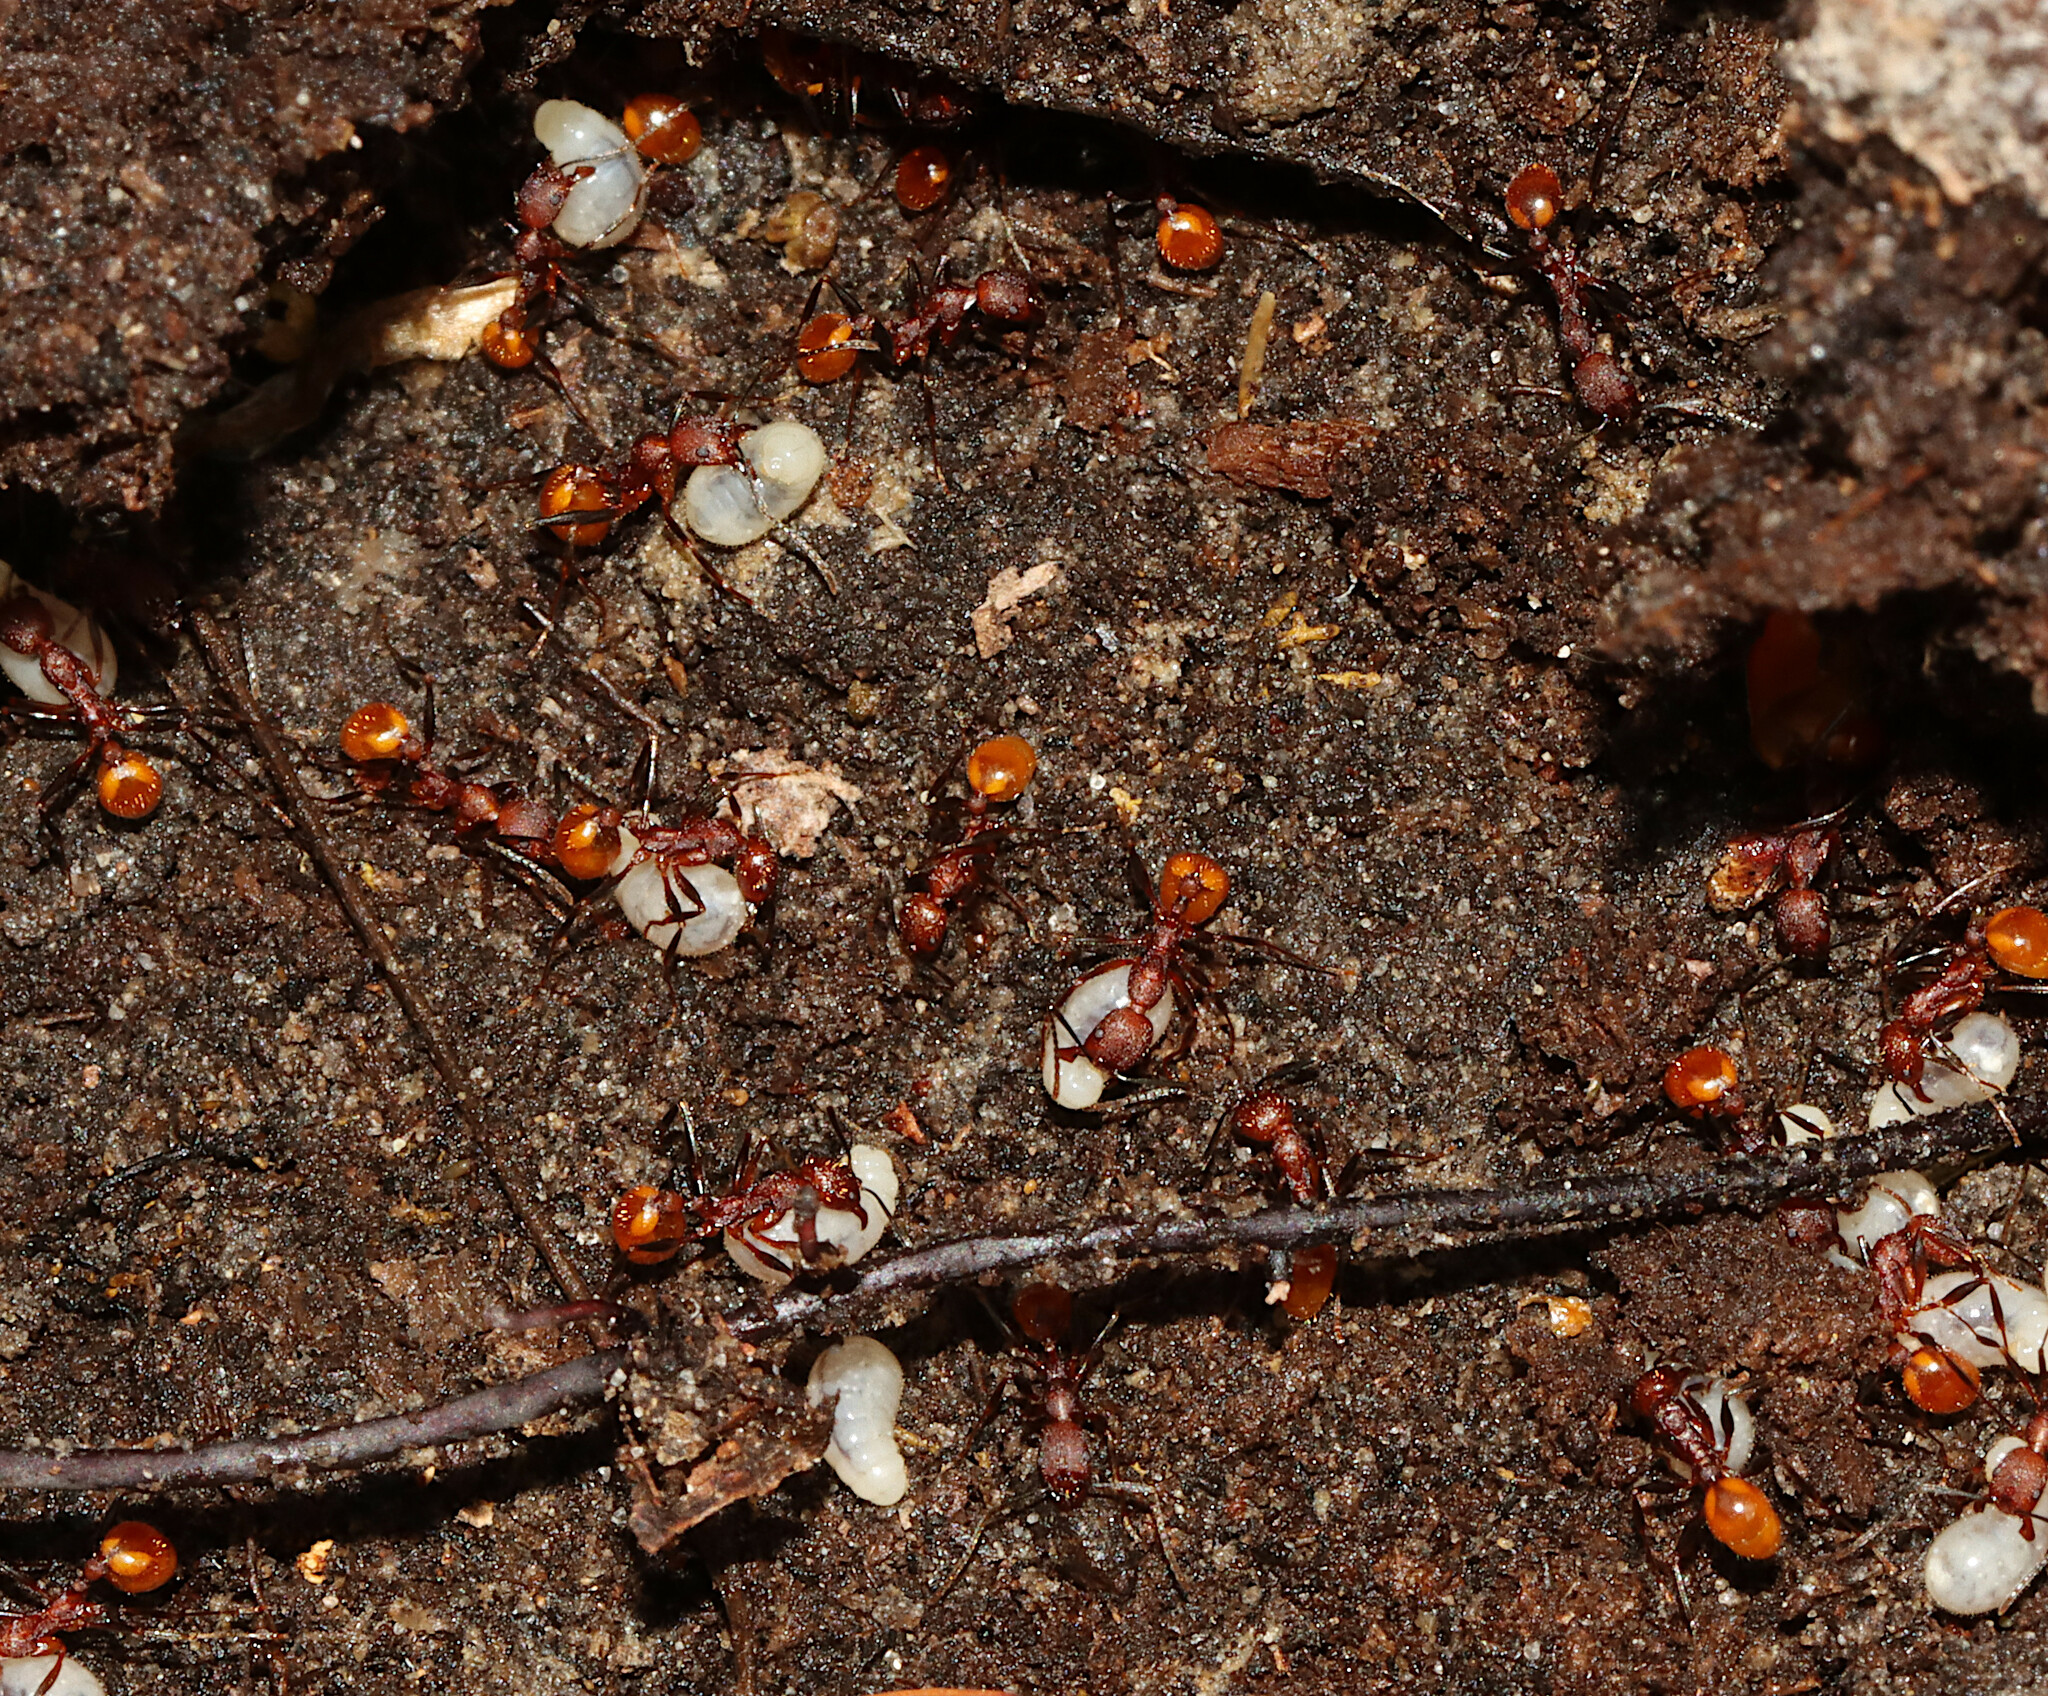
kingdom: Animalia
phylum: Arthropoda
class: Insecta
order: Hymenoptera
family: Formicidae
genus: Aphaenogaster
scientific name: Aphaenogaster lamellidens
